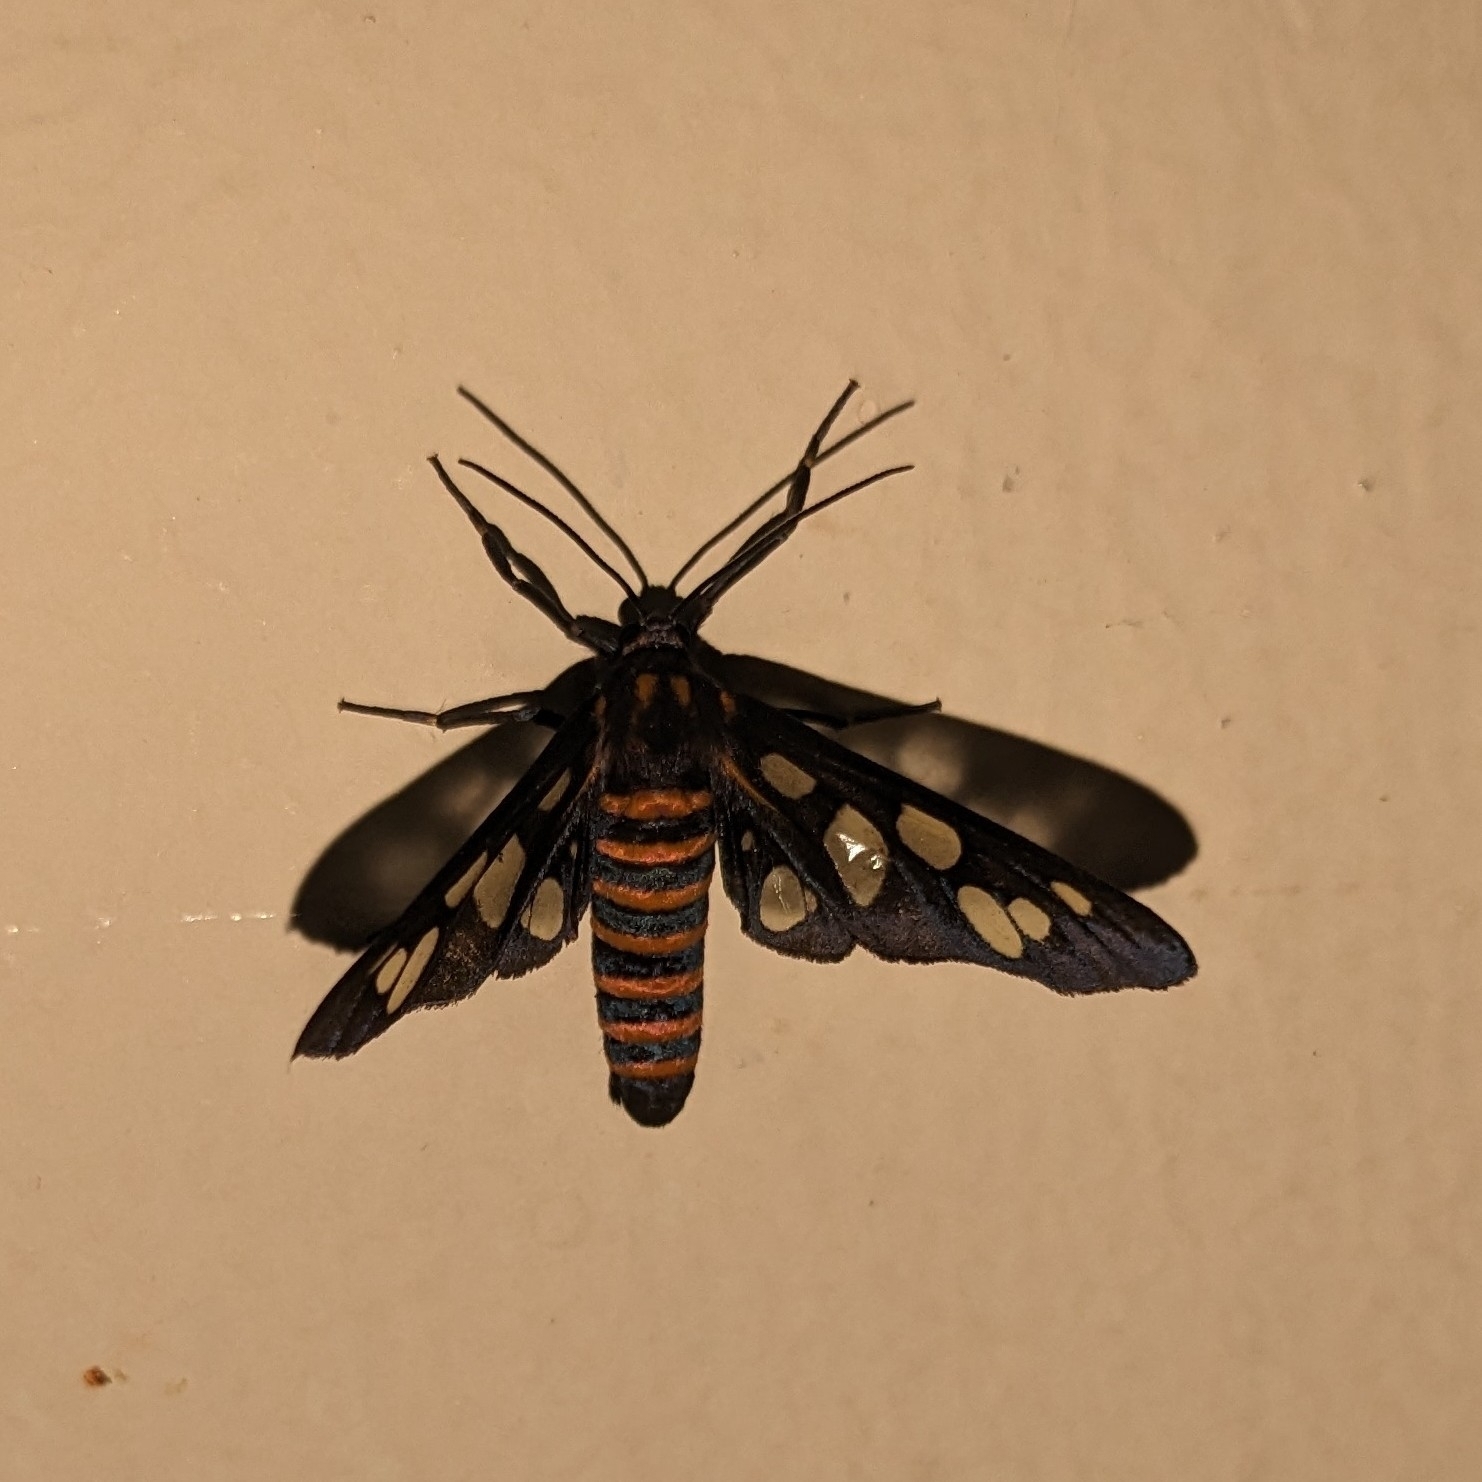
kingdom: Animalia
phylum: Arthropoda
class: Insecta
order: Lepidoptera
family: Erebidae
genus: Amata
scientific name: Amata passalis
